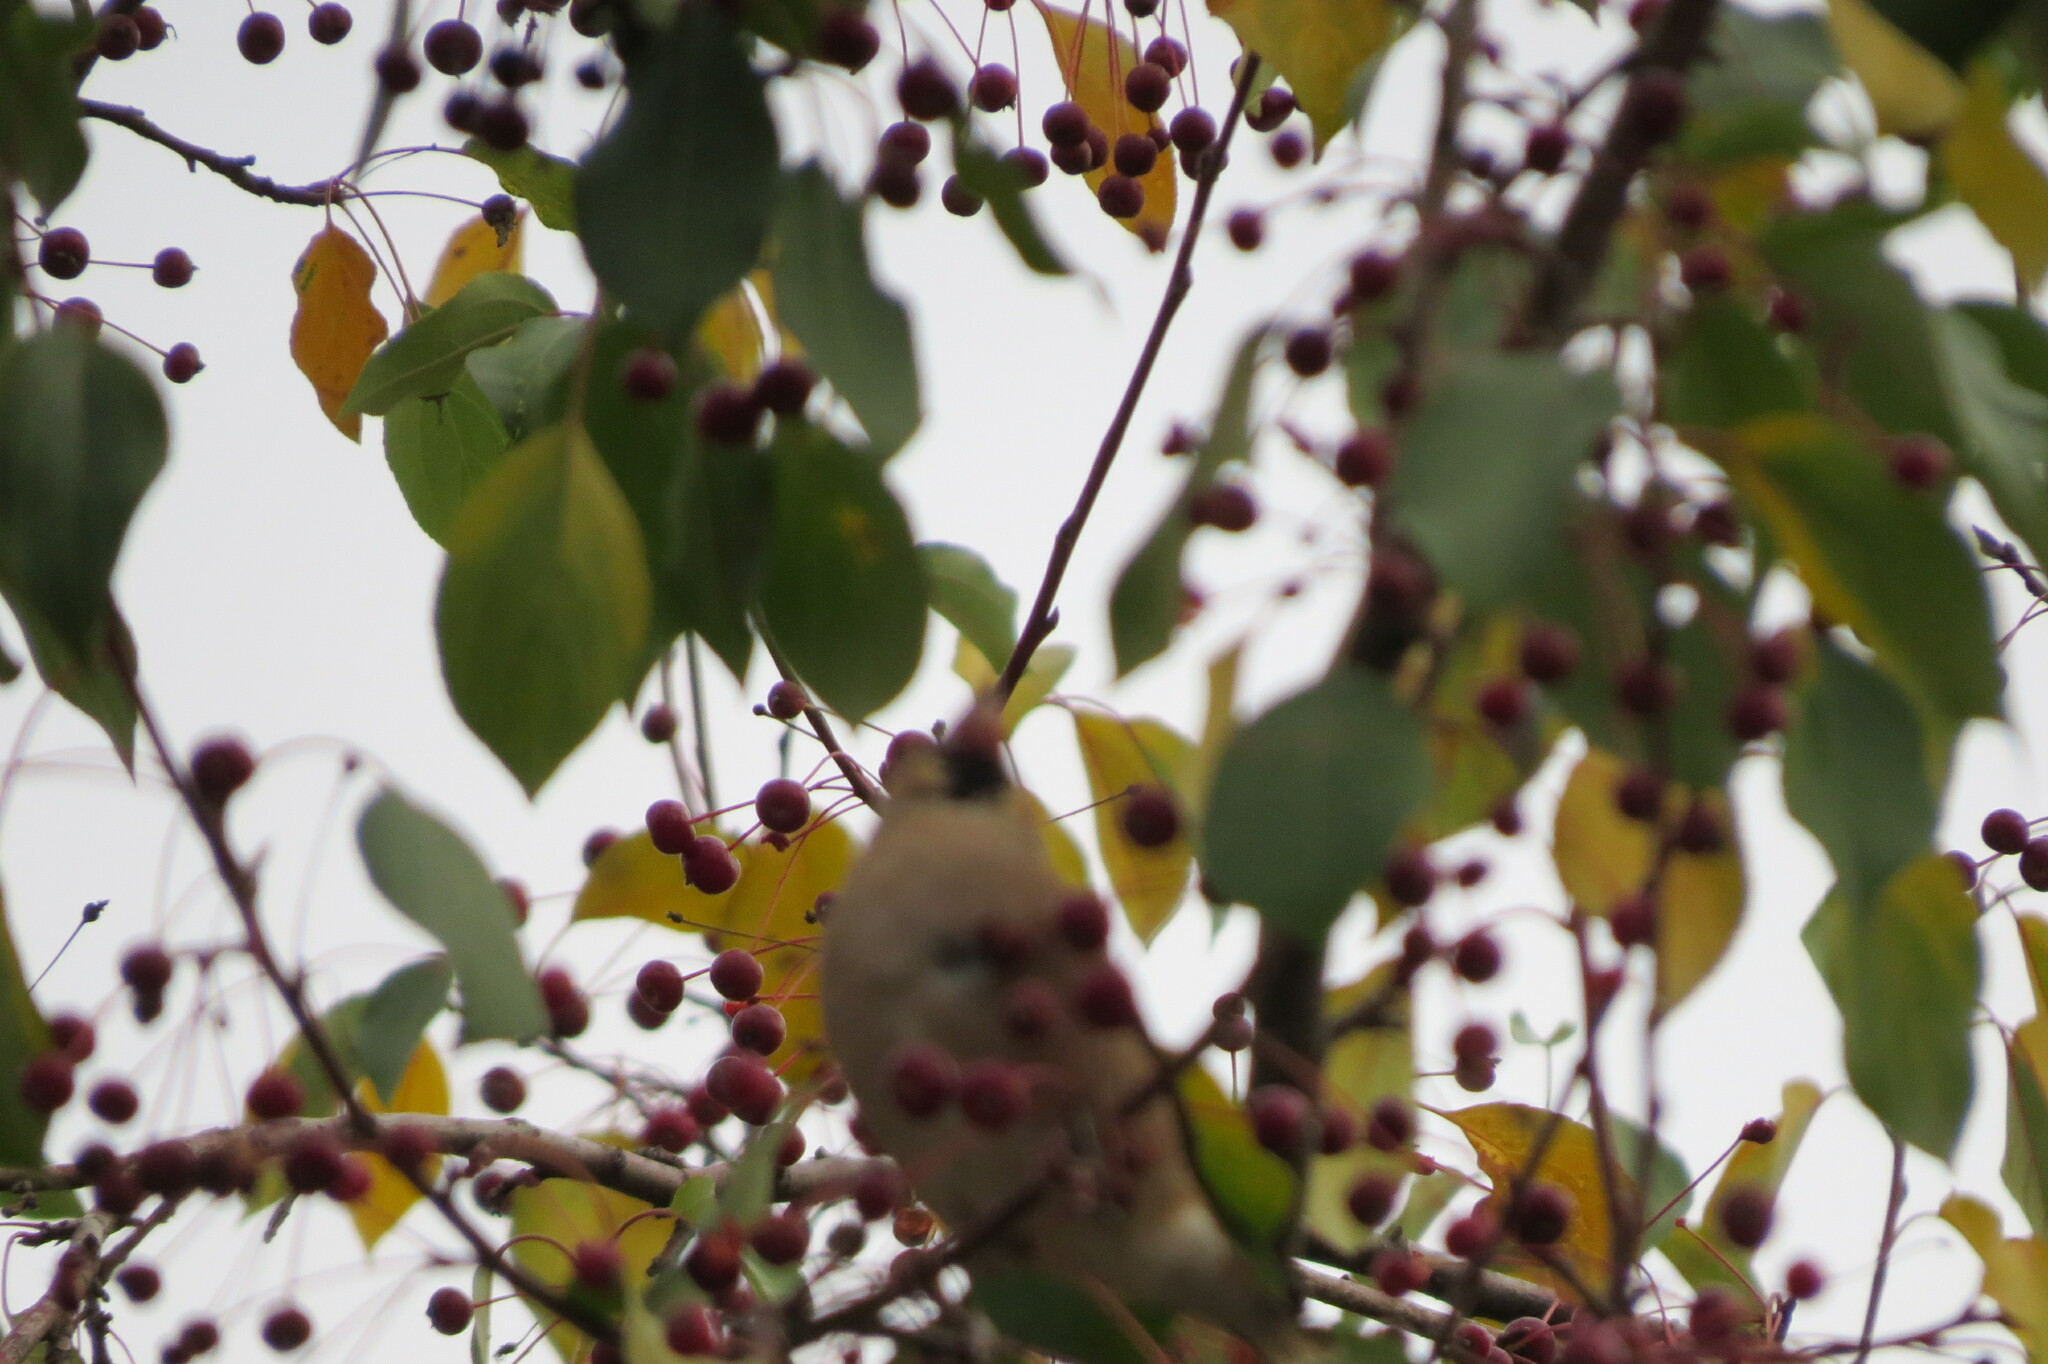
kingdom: Animalia
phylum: Chordata
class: Aves
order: Passeriformes
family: Fringillidae
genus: Coccothraustes
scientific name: Coccothraustes coccothraustes
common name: Hawfinch
